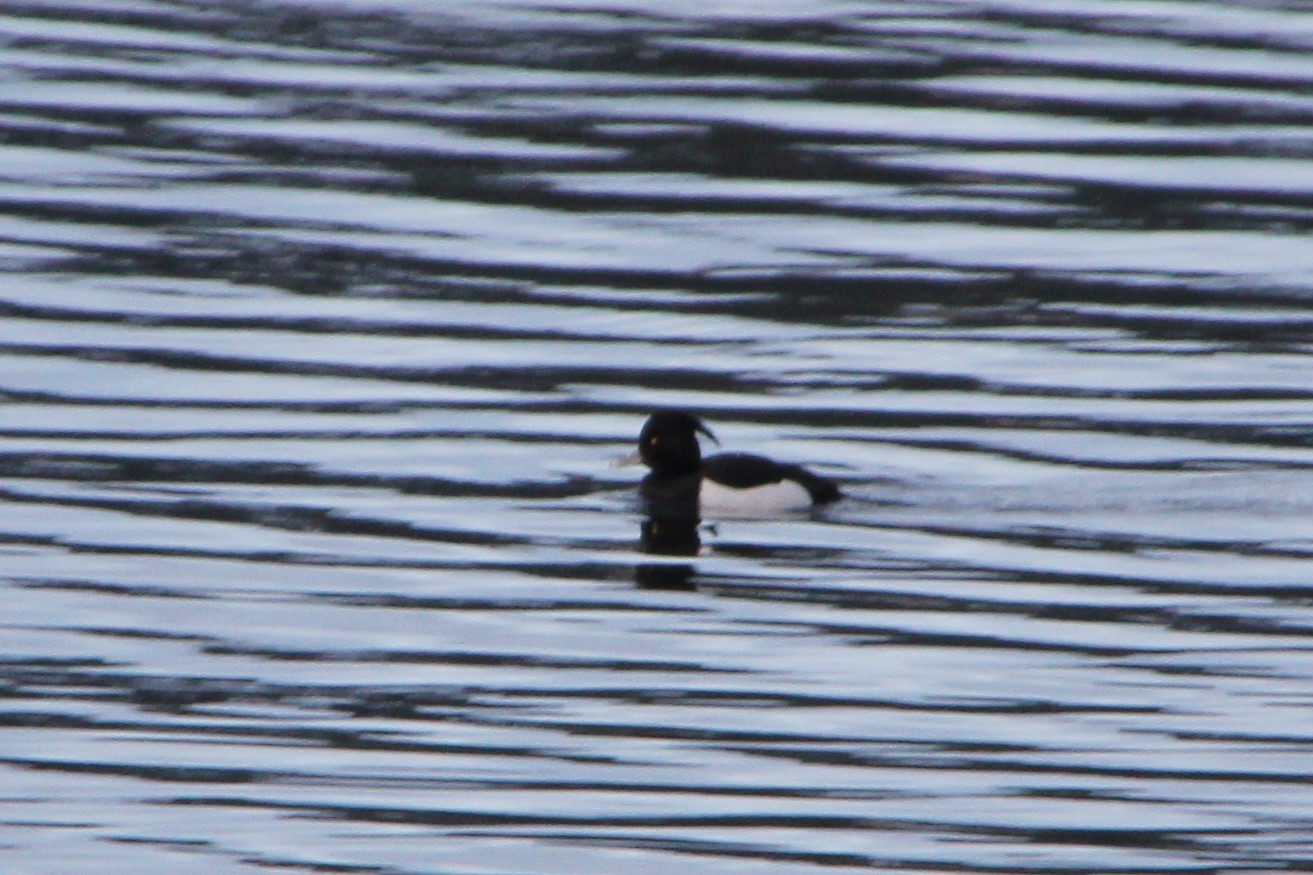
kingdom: Animalia
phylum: Chordata
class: Aves
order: Anseriformes
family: Anatidae
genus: Aythya
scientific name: Aythya fuligula
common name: Tufted duck
